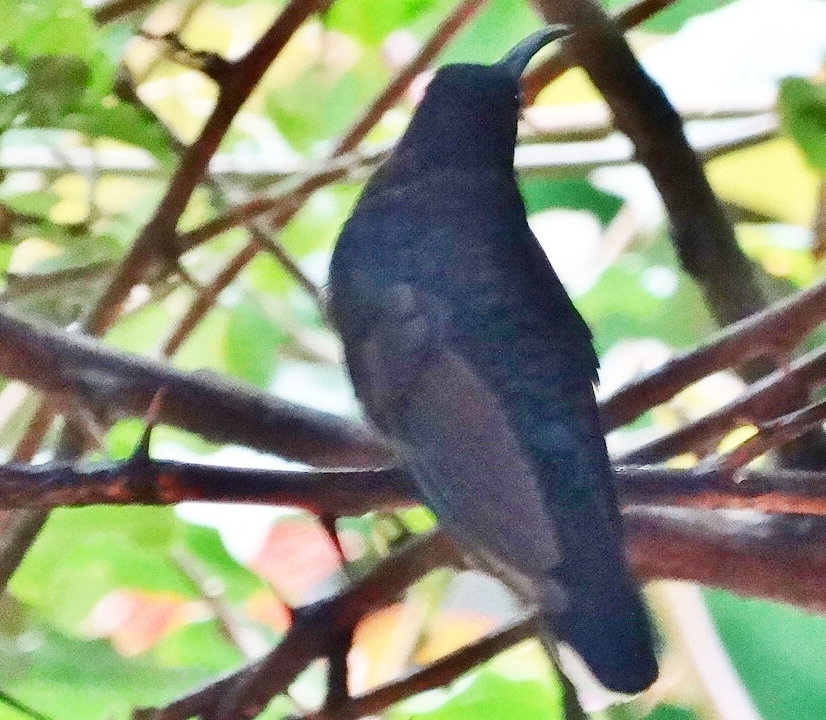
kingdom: Animalia
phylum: Chordata
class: Aves
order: Apodiformes
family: Trochilidae
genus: Campylopterus
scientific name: Campylopterus hemileucurus
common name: Violet sabrewing
